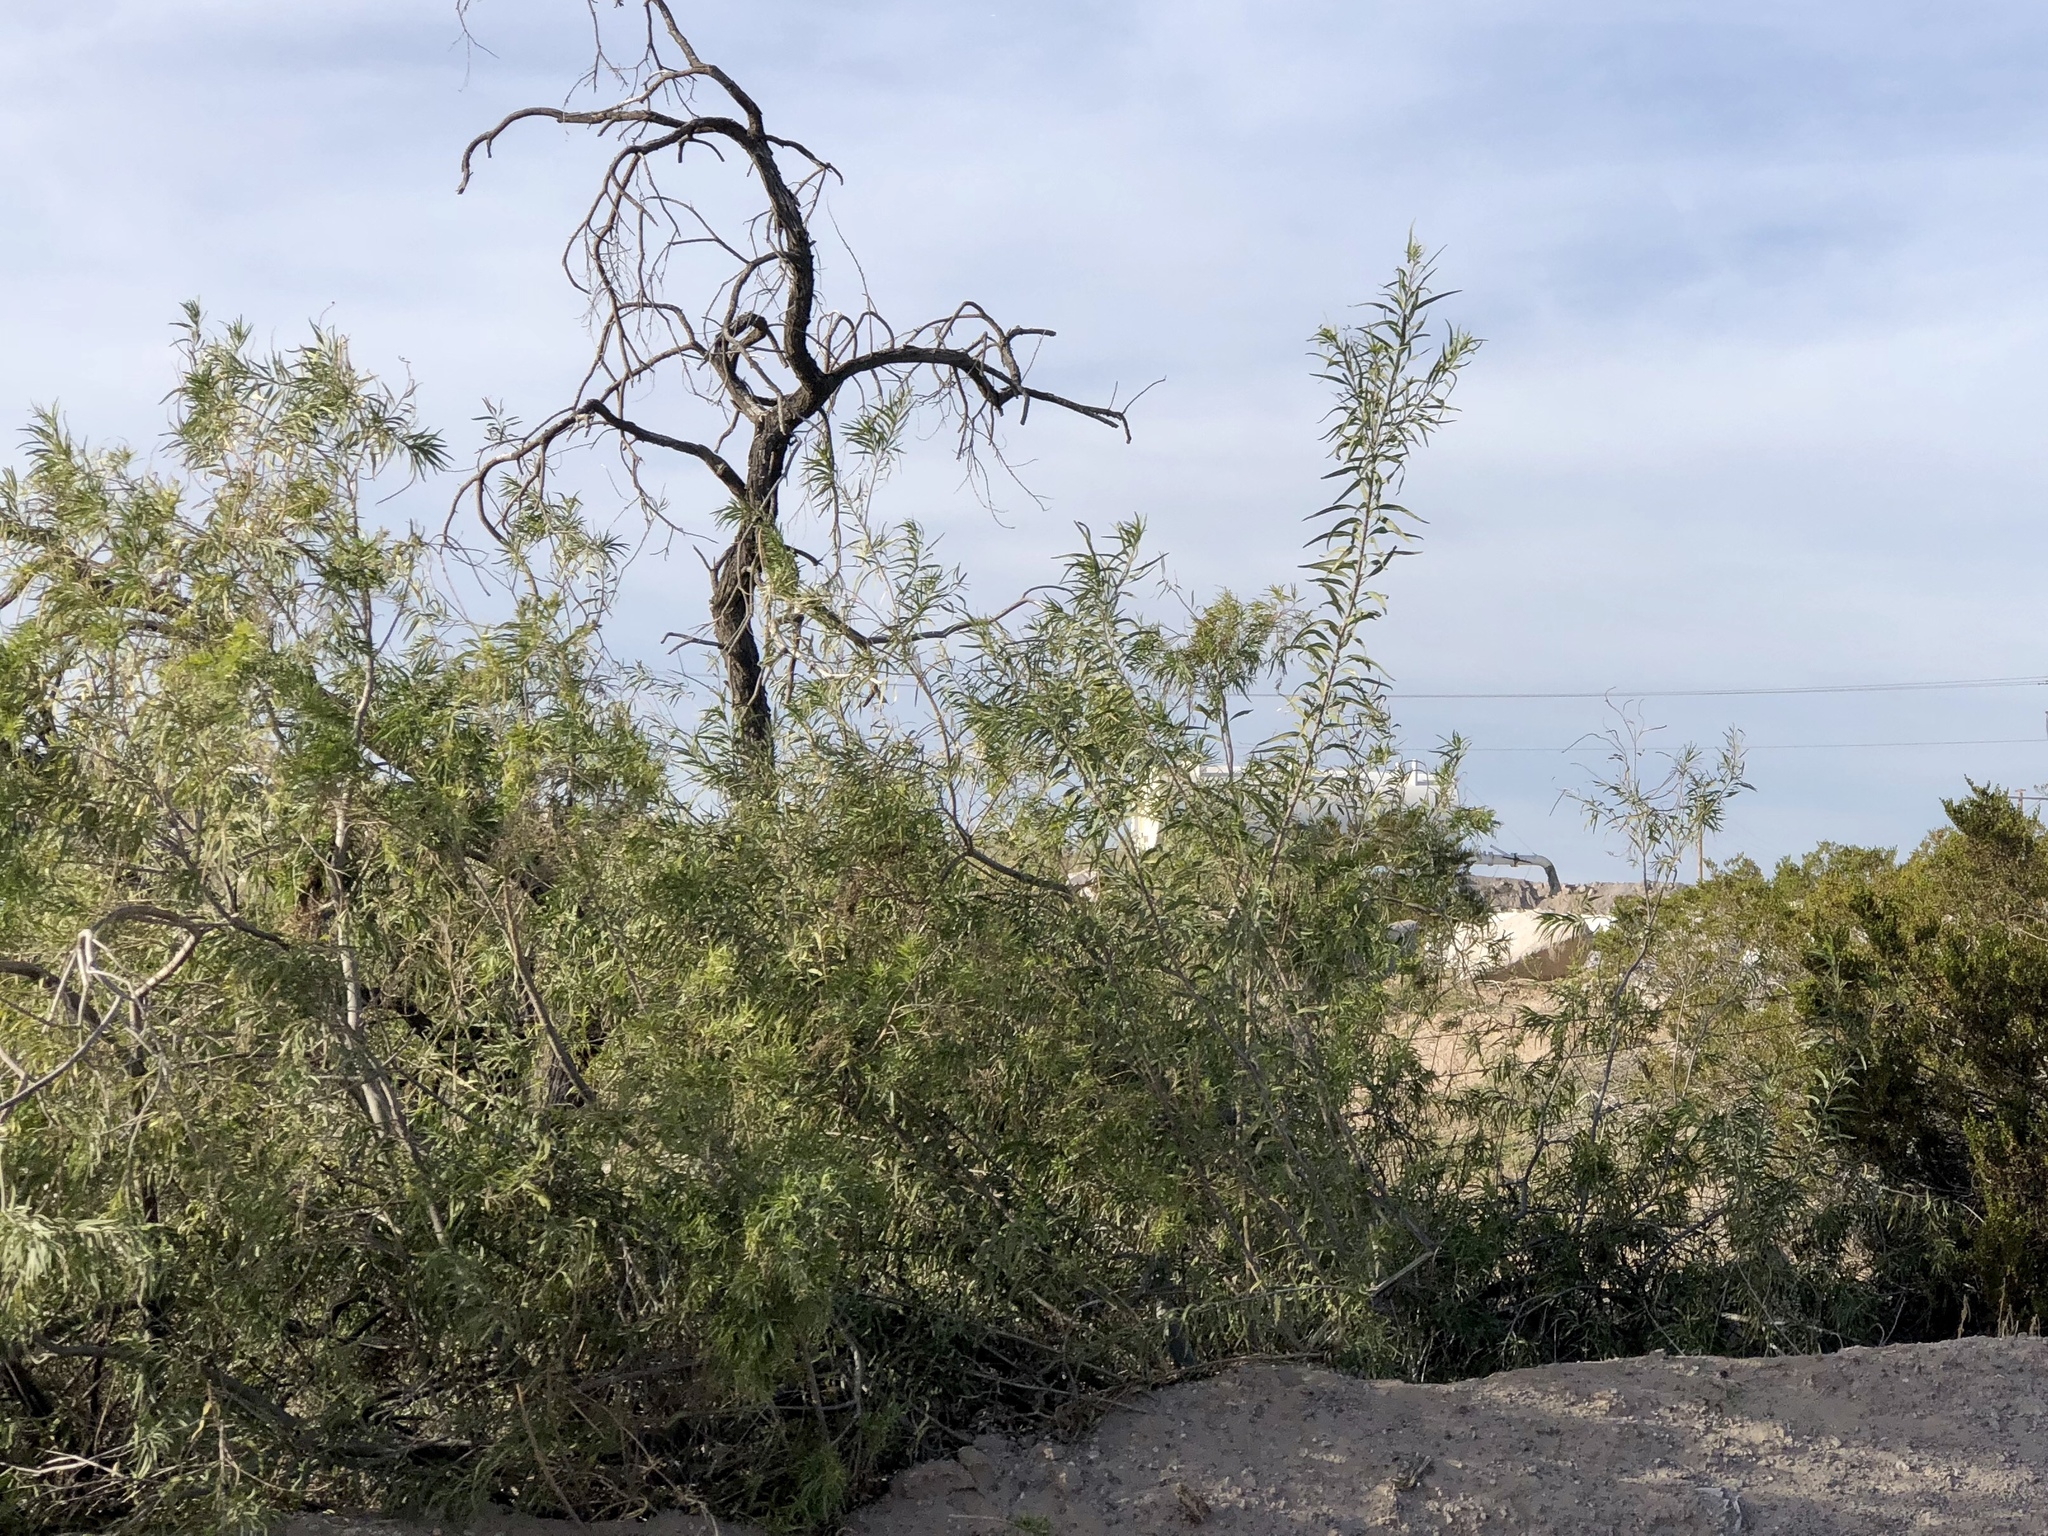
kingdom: Plantae
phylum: Tracheophyta
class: Magnoliopsida
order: Lamiales
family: Bignoniaceae
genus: Chilopsis
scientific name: Chilopsis linearis
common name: Desert-willow
